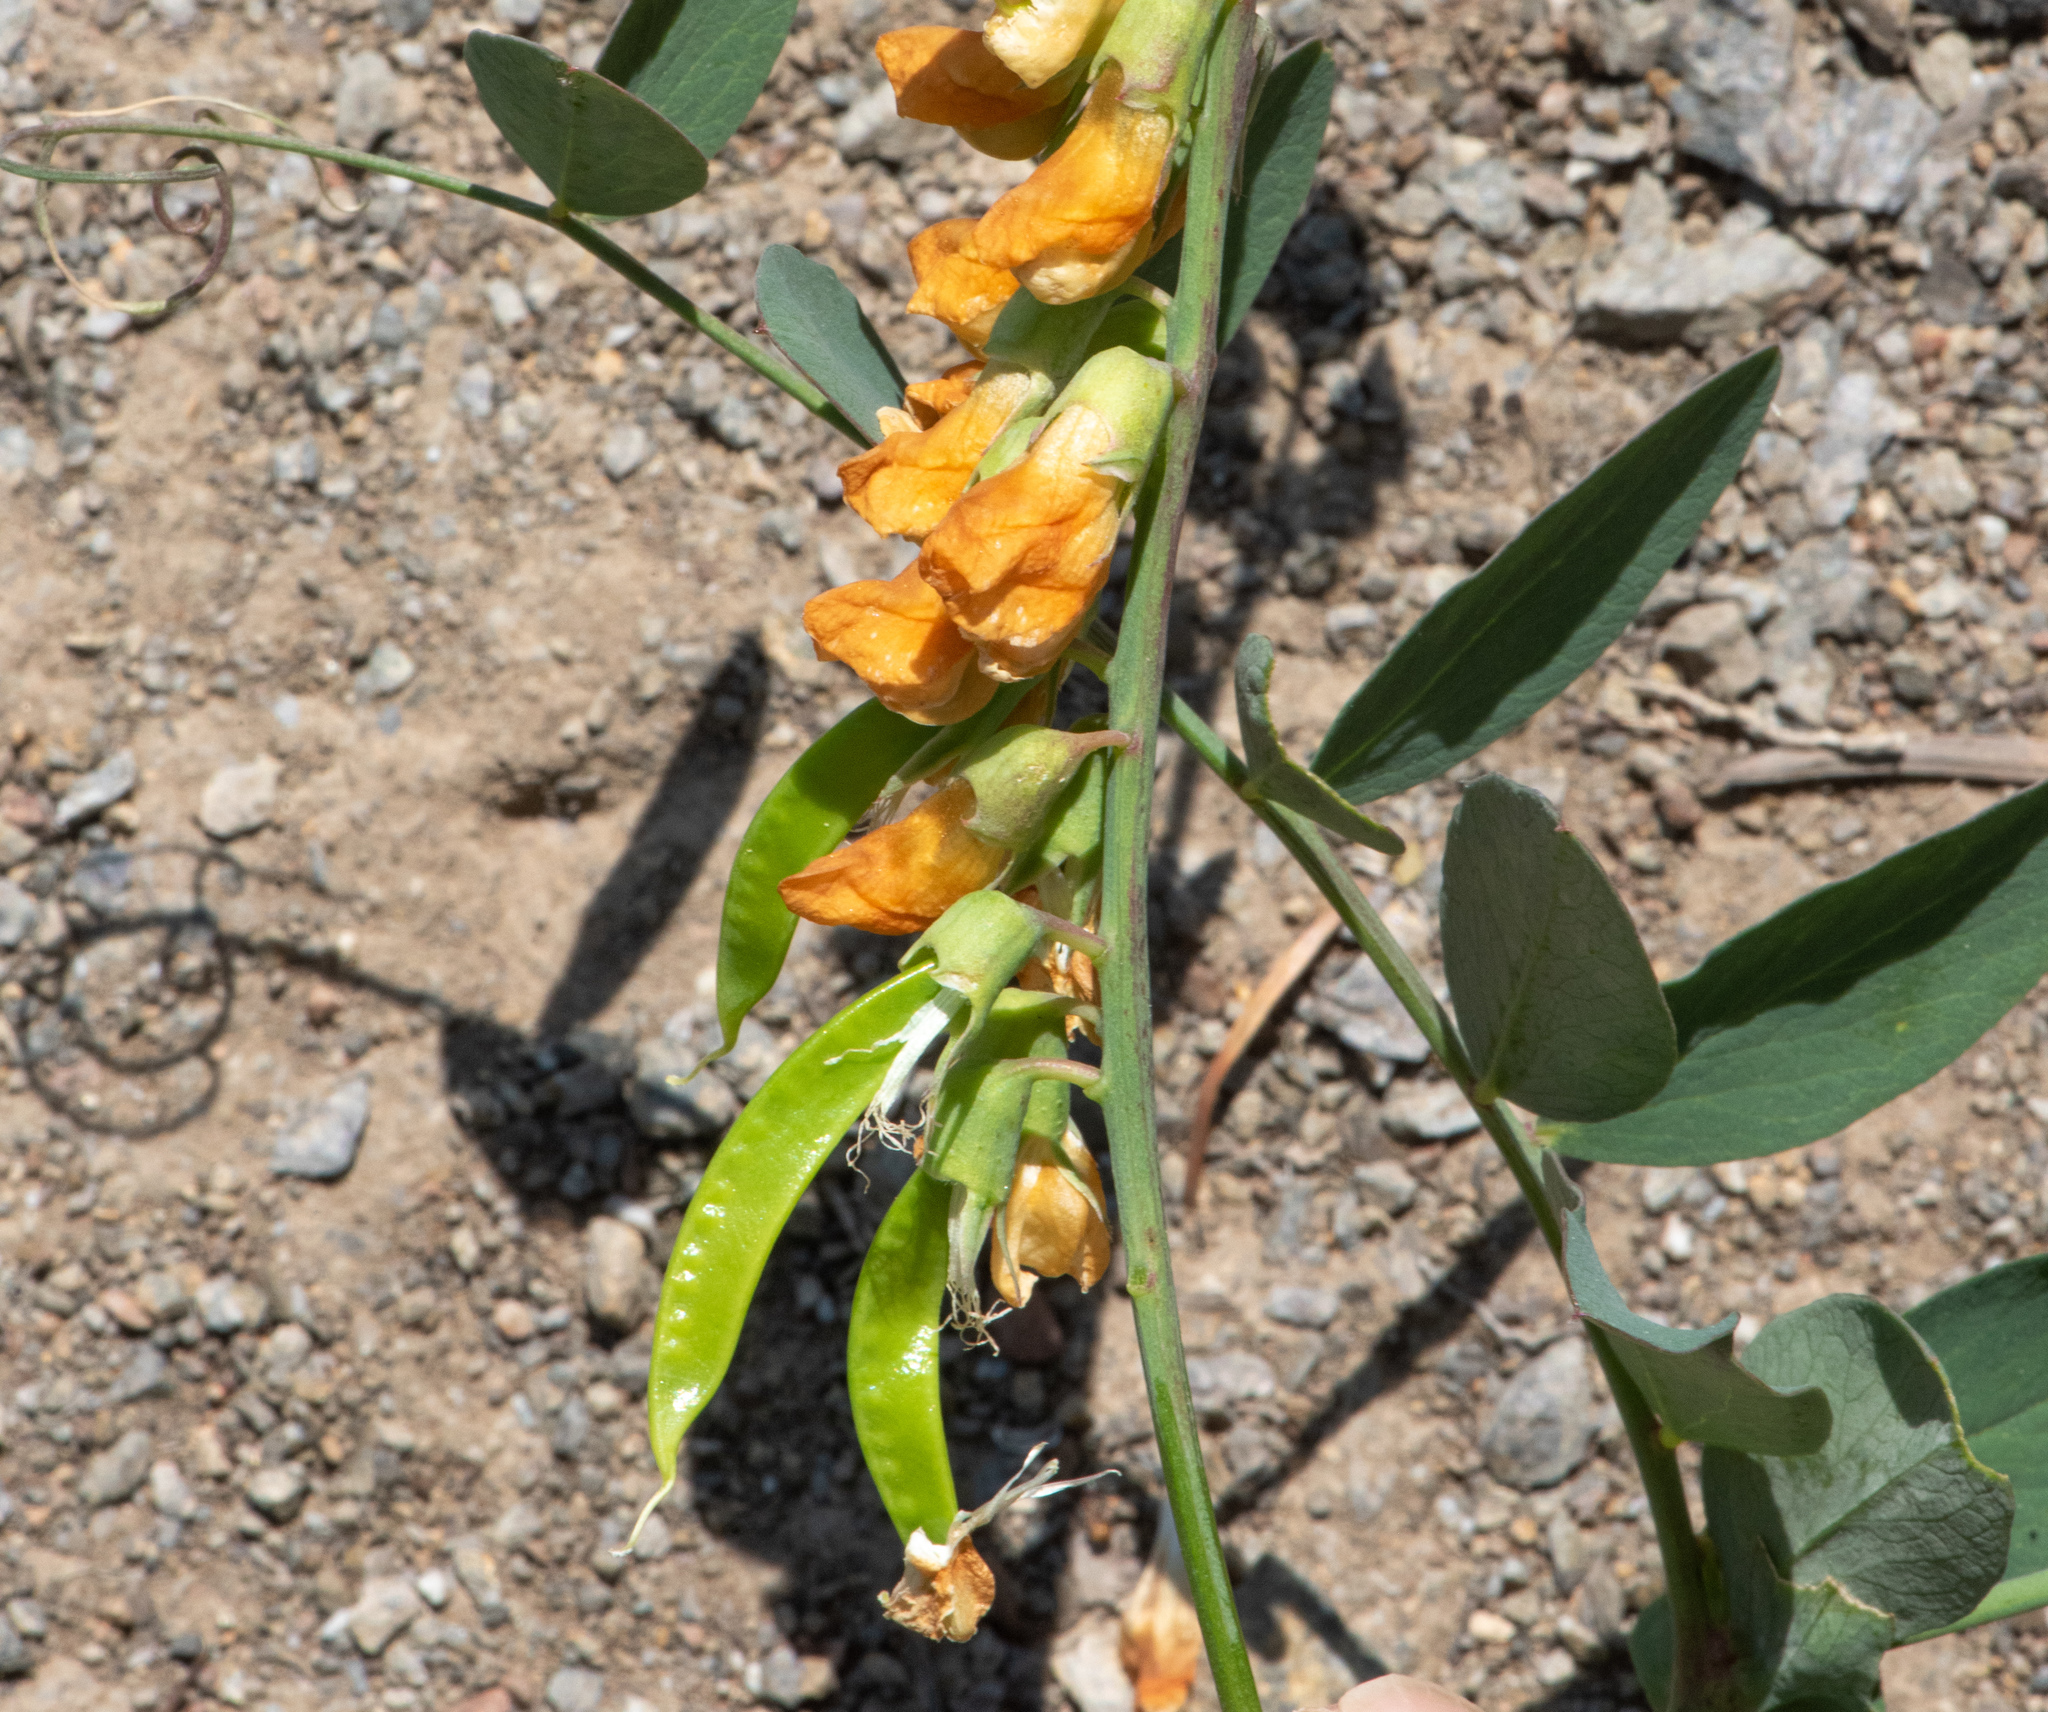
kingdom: Plantae
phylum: Tracheophyta
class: Magnoliopsida
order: Fabales
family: Fabaceae
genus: Lathyrus
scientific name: Lathyrus sulphureus
